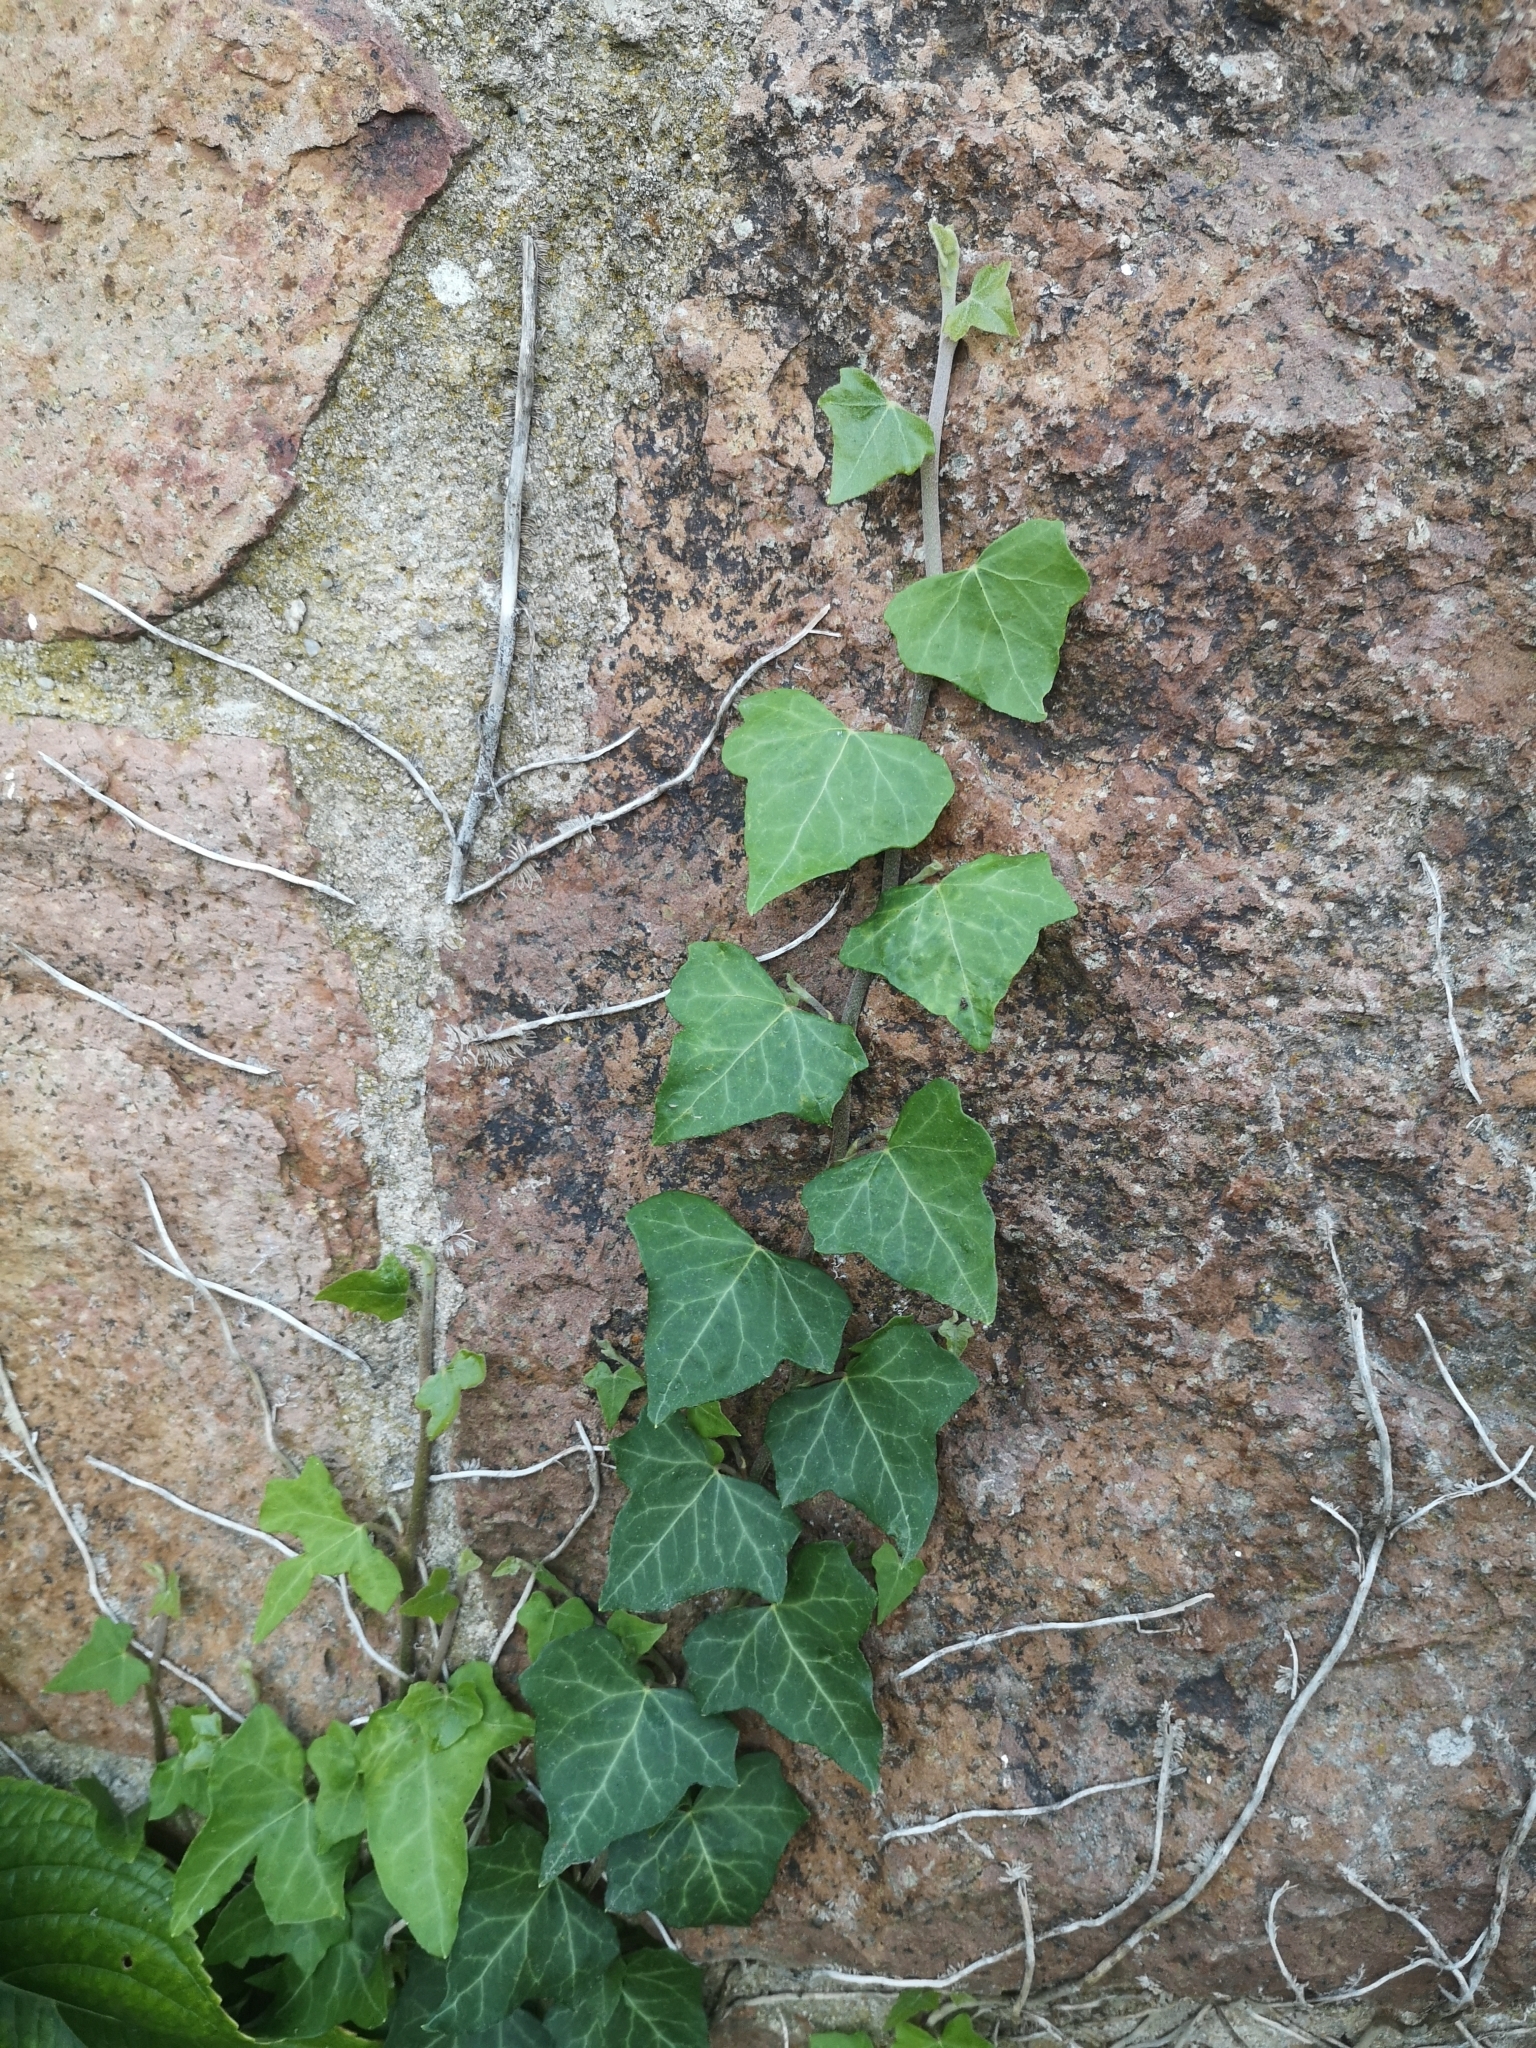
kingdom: Plantae
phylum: Tracheophyta
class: Magnoliopsida
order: Apiales
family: Araliaceae
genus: Hedera
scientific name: Hedera helix
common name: Ivy
